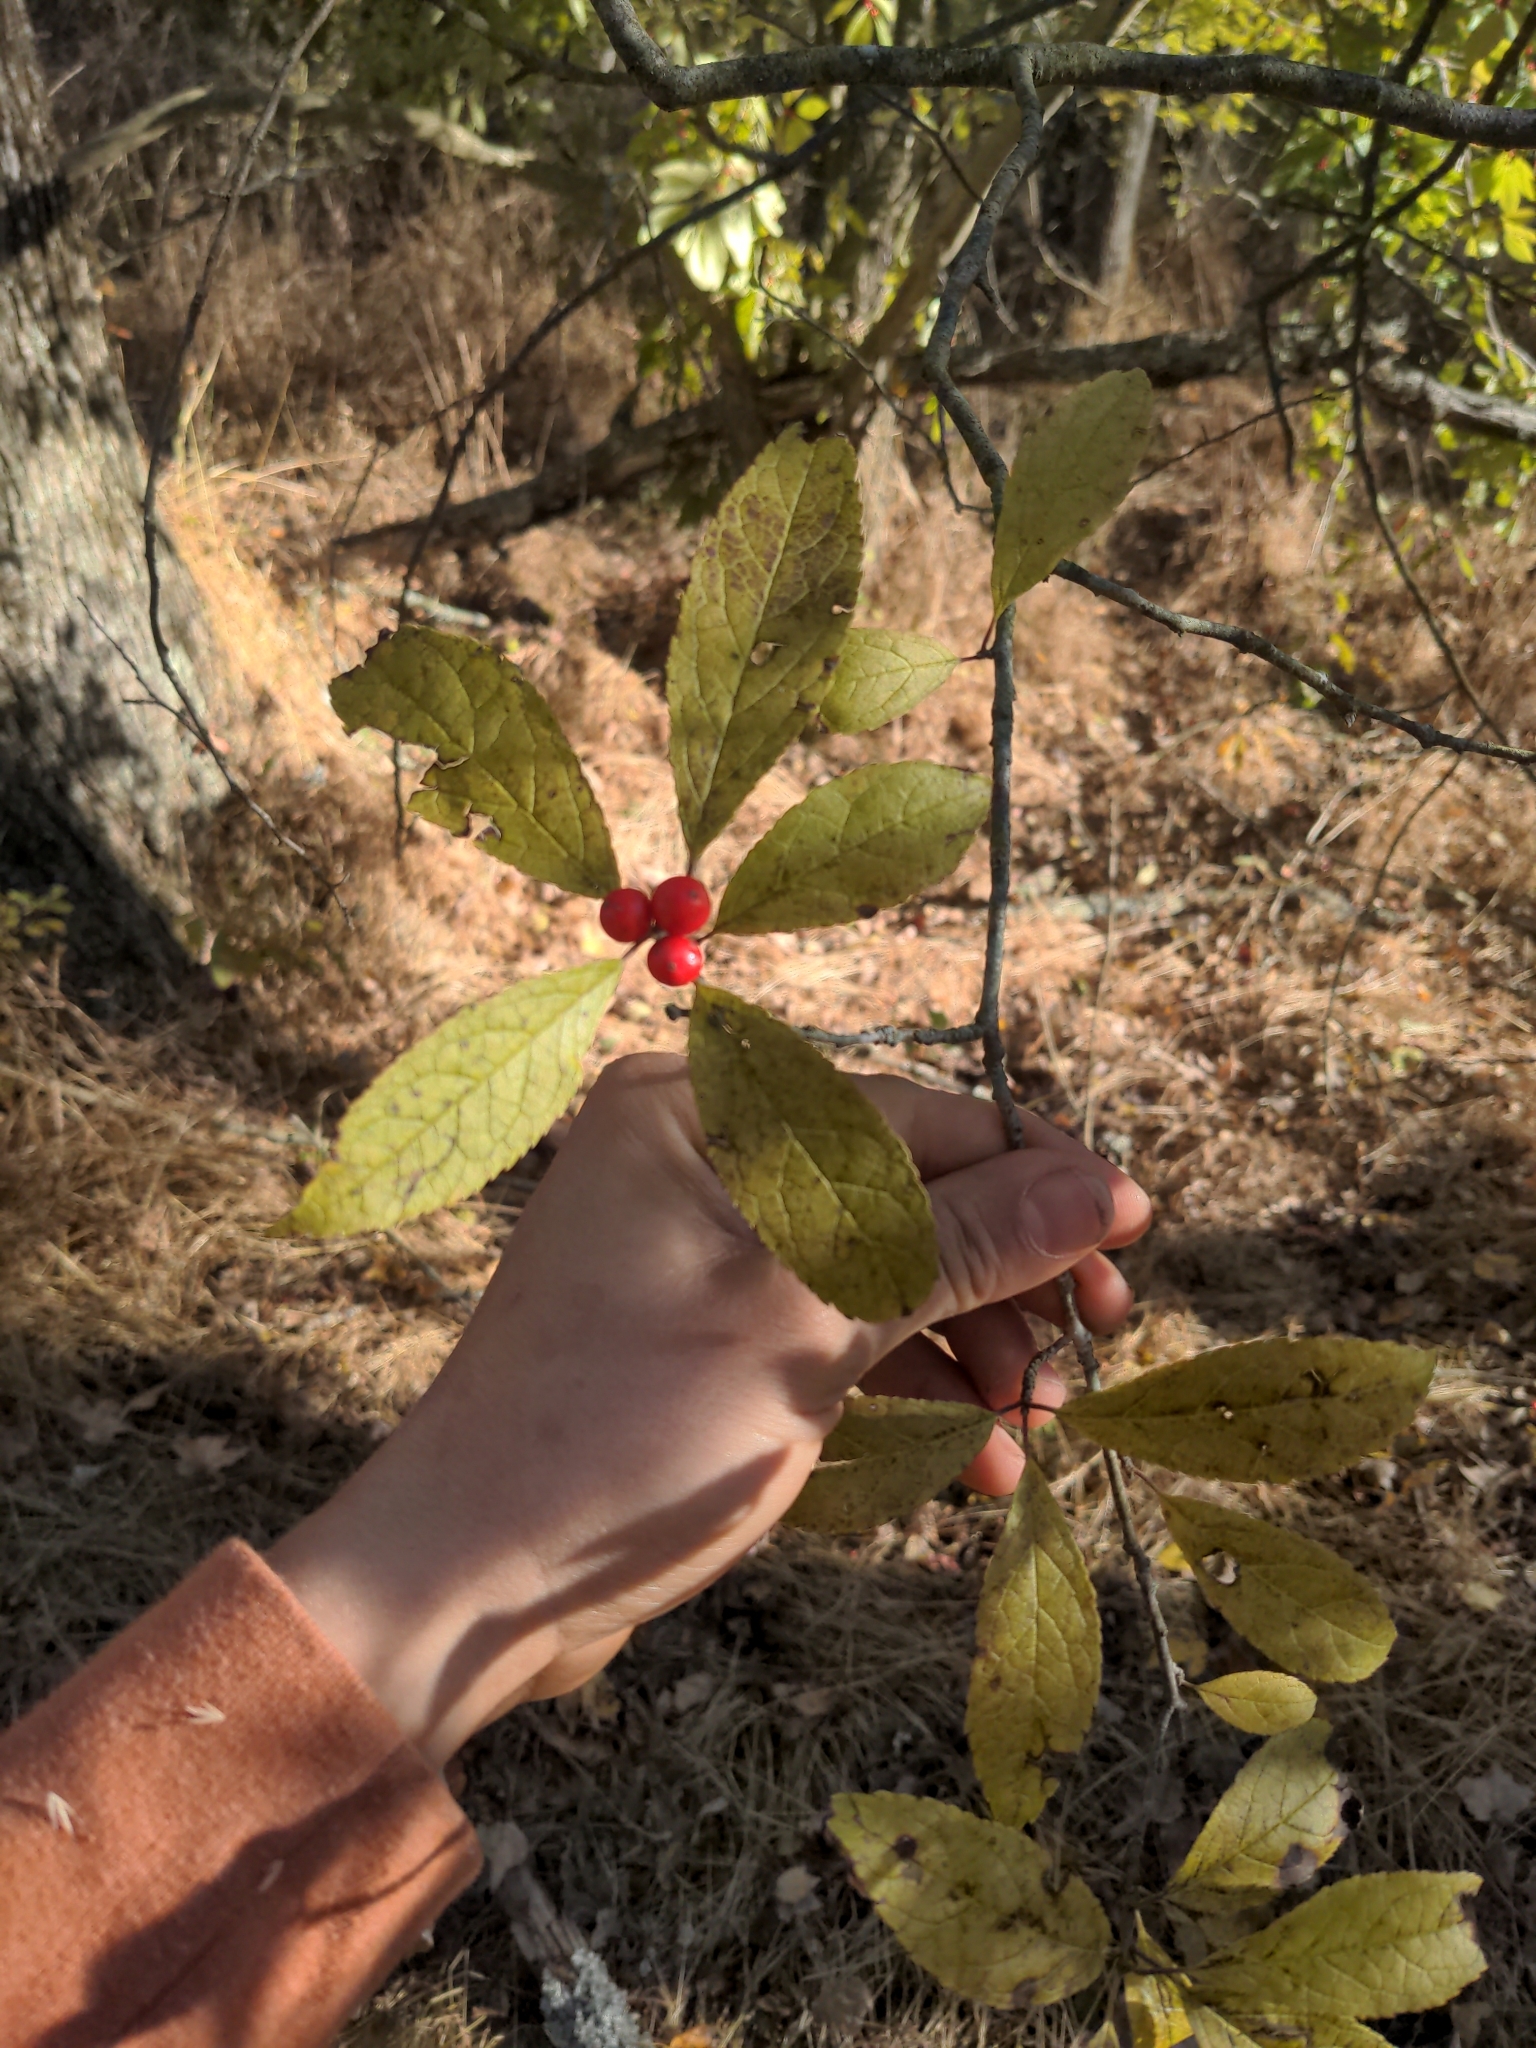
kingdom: Plantae
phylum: Tracheophyta
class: Magnoliopsida
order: Aquifoliales
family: Aquifoliaceae
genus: Ilex
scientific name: Ilex verticillata
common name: Virginia winterberry
